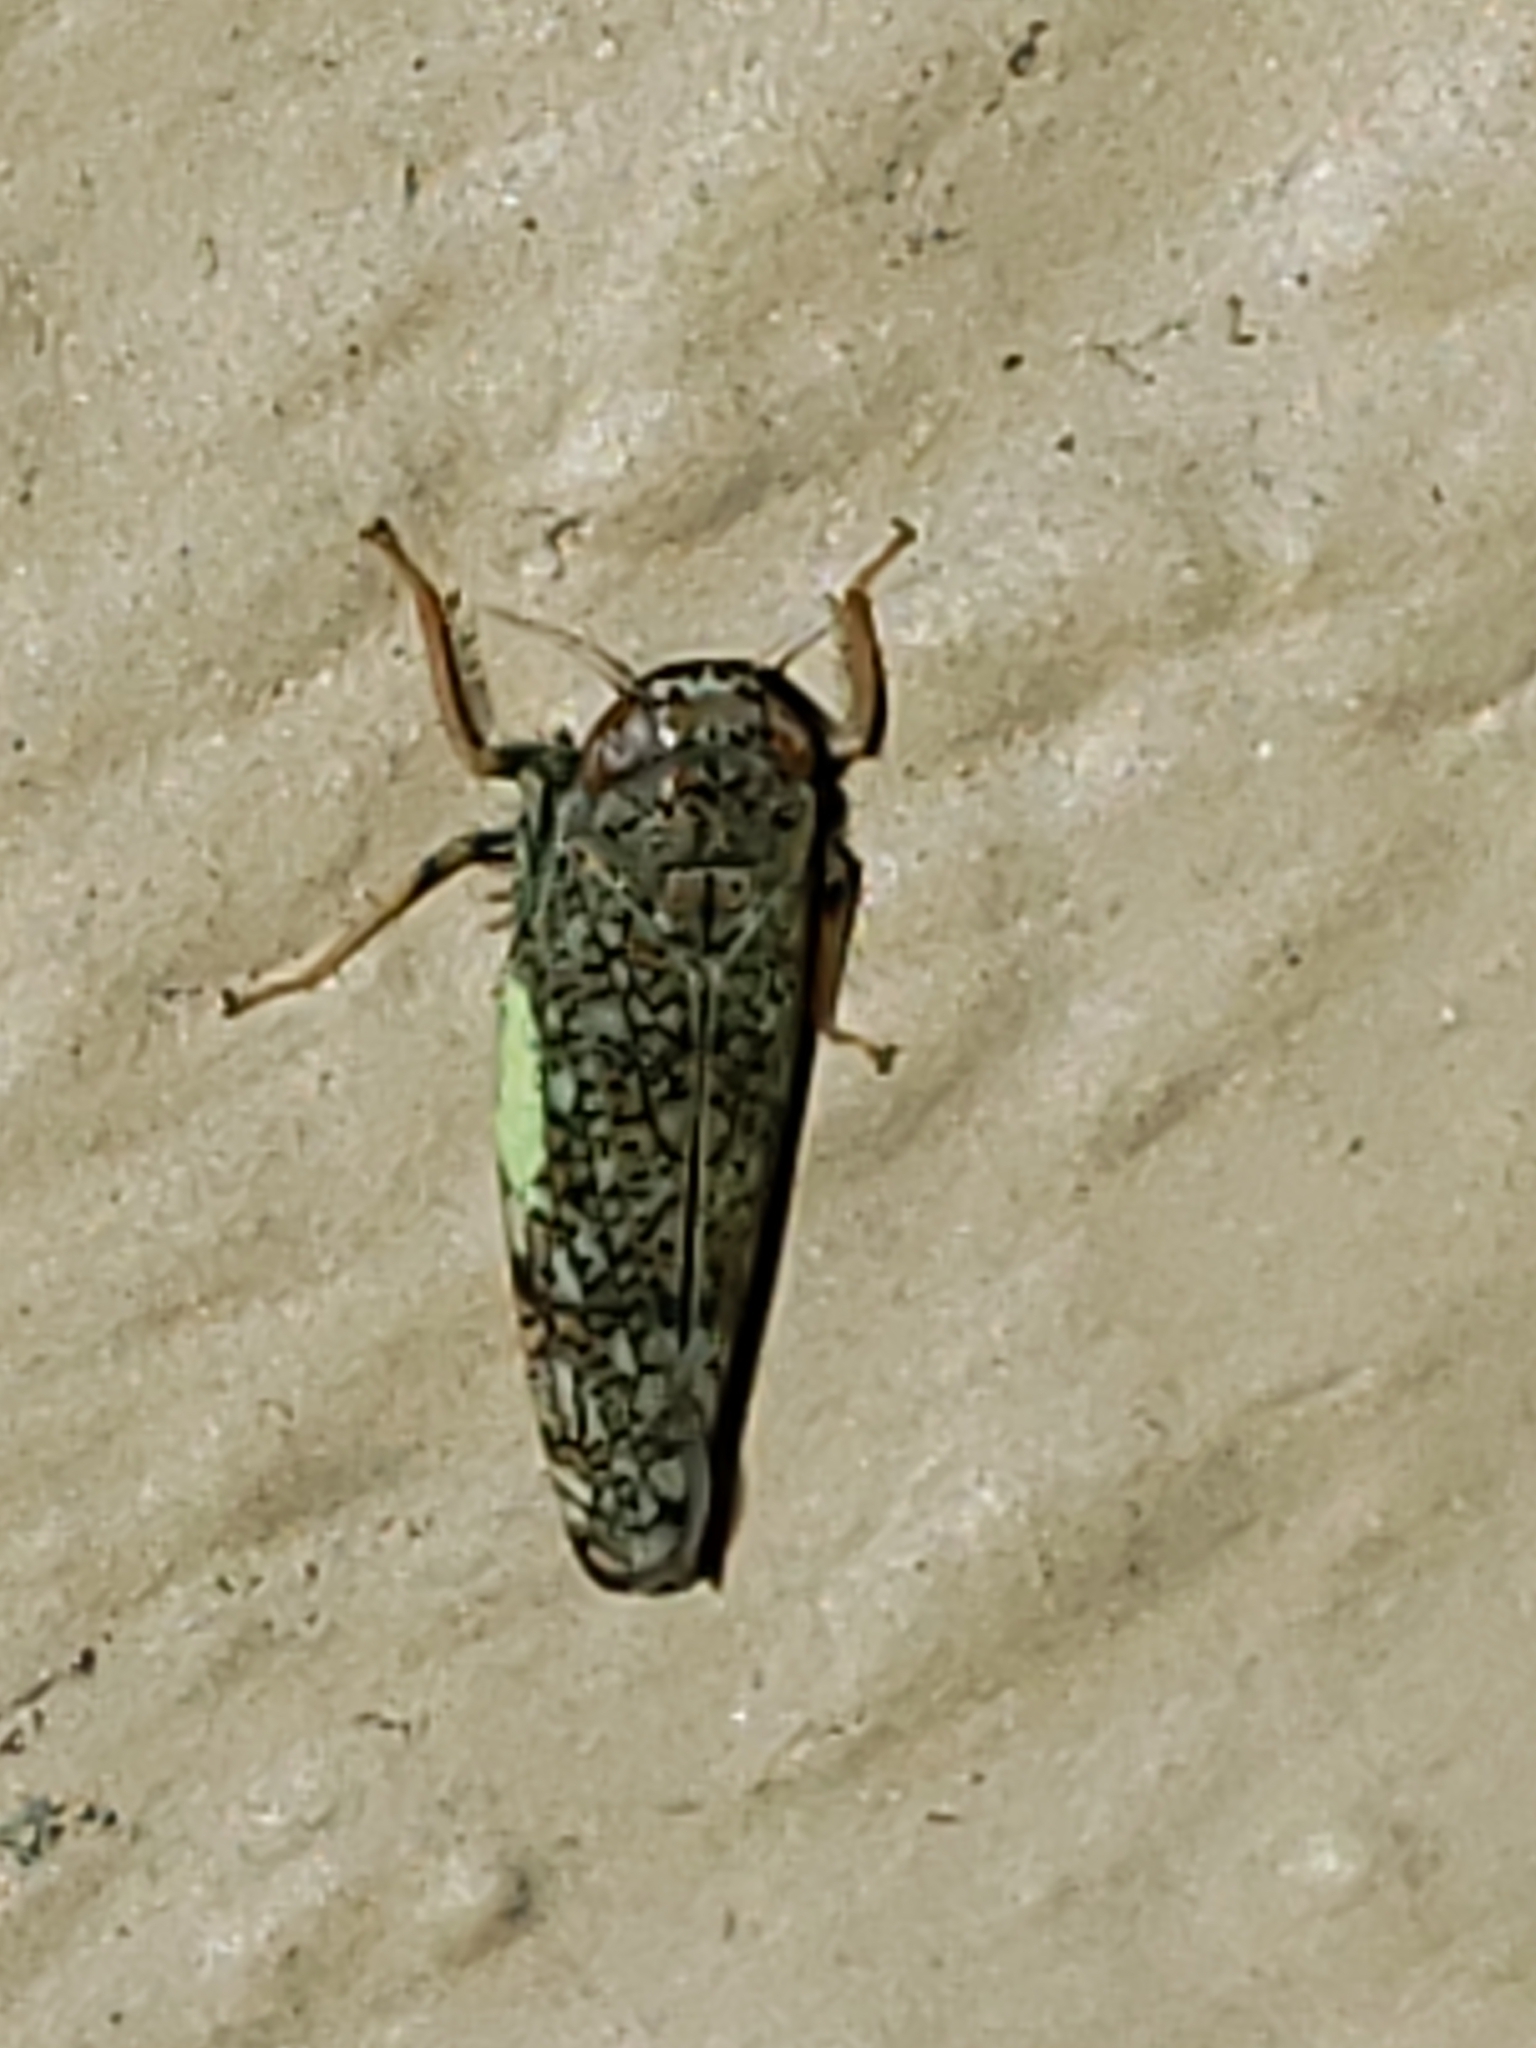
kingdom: Animalia
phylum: Arthropoda
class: Insecta
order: Hemiptera
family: Cicadellidae
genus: Orientus
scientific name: Orientus ishidae
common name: Japanese leafhopper
